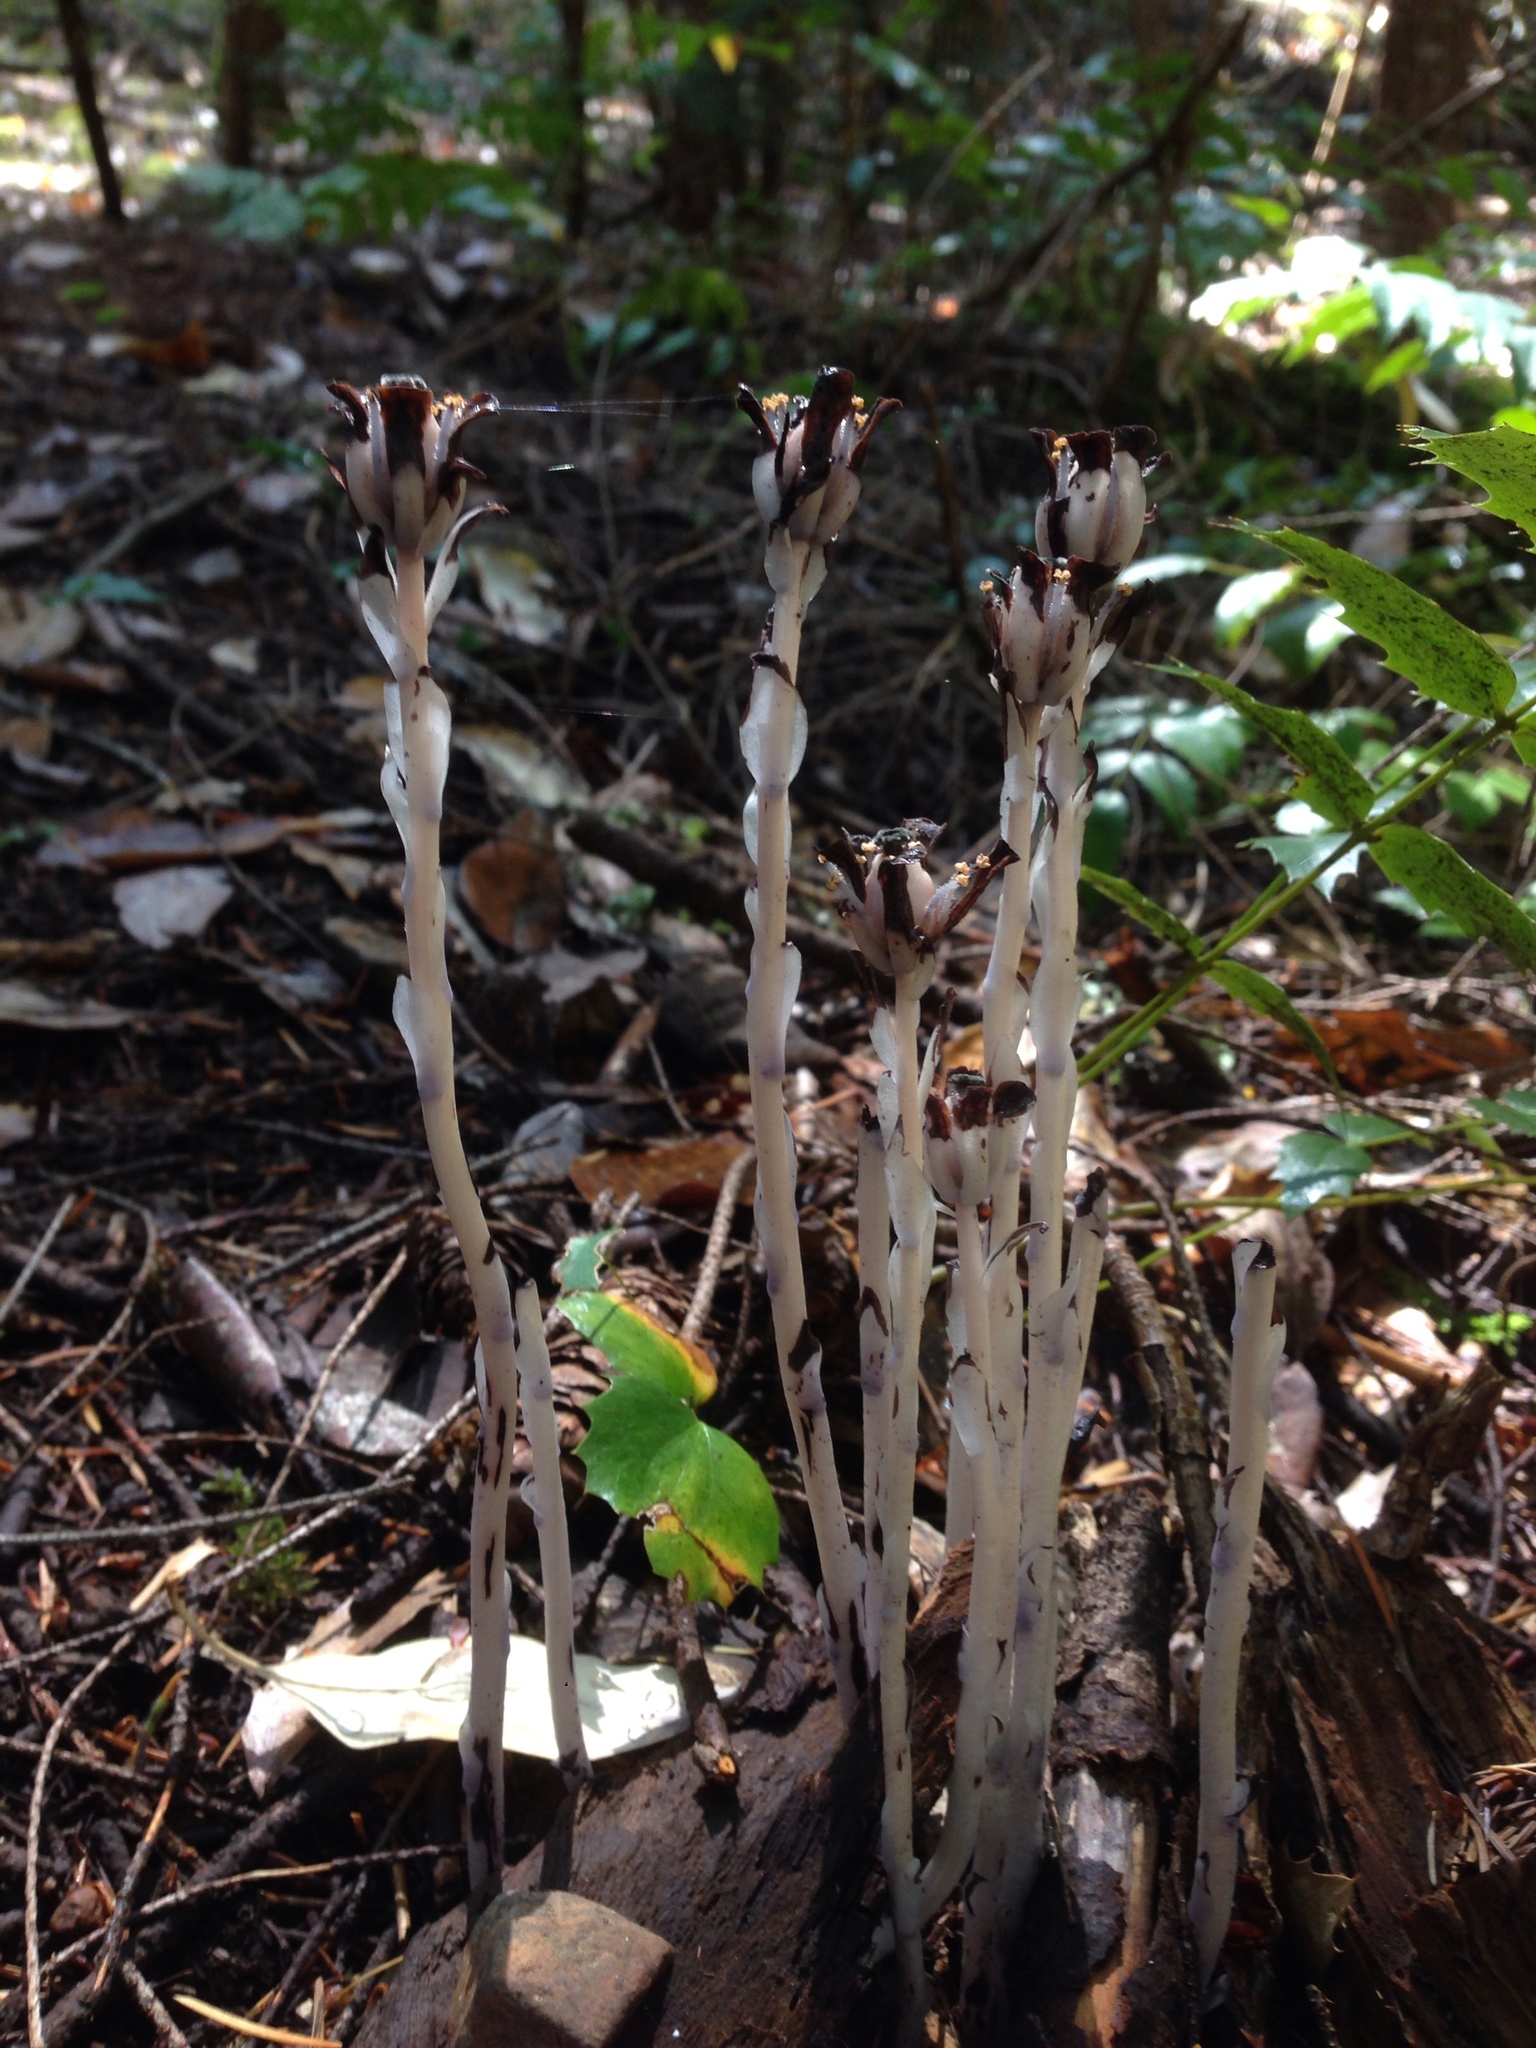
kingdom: Plantae
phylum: Tracheophyta
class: Magnoliopsida
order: Ericales
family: Ericaceae
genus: Monotropa
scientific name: Monotropa uniflora
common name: Convulsion root
